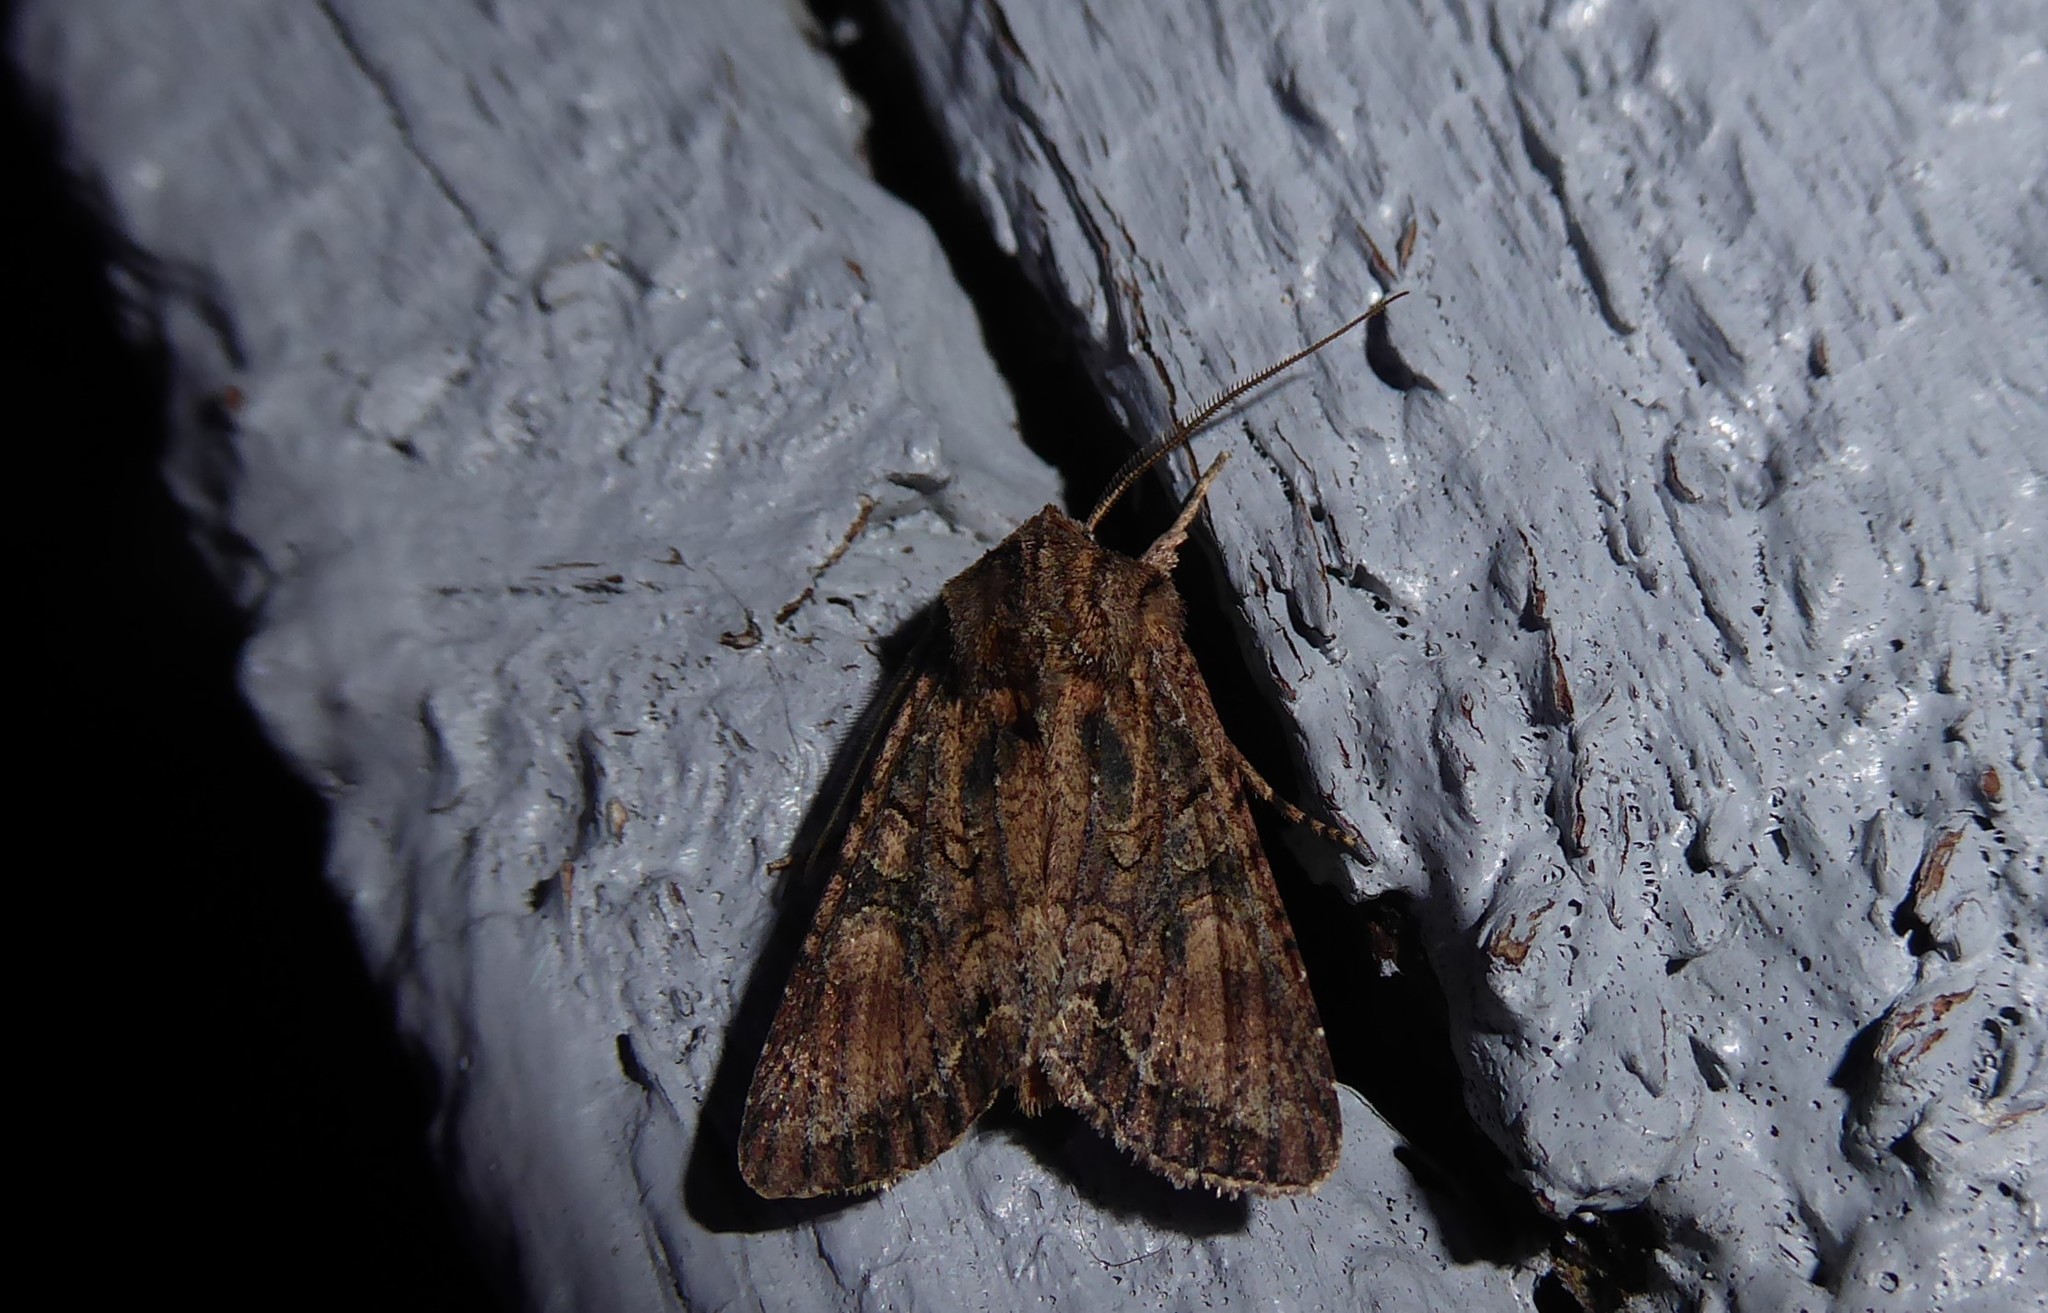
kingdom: Animalia
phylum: Arthropoda
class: Insecta
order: Lepidoptera
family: Noctuidae
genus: Ichneutica
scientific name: Ichneutica mutans
